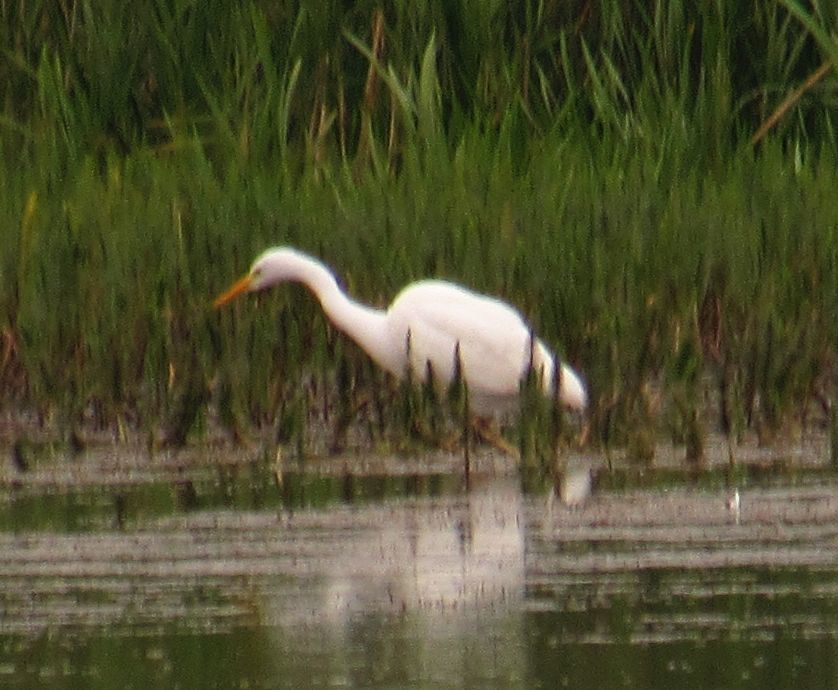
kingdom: Animalia
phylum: Chordata
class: Aves
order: Pelecaniformes
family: Ardeidae
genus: Ardea
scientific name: Ardea alba
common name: Great egret
